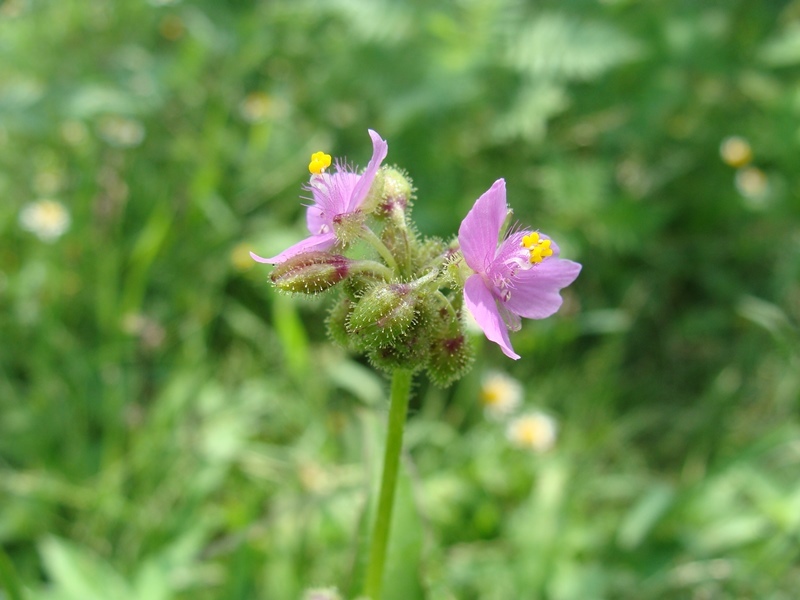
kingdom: Plantae
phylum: Tracheophyta
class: Liliopsida
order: Commelinales
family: Commelinaceae
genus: Callisia
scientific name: Callisia disgrega
